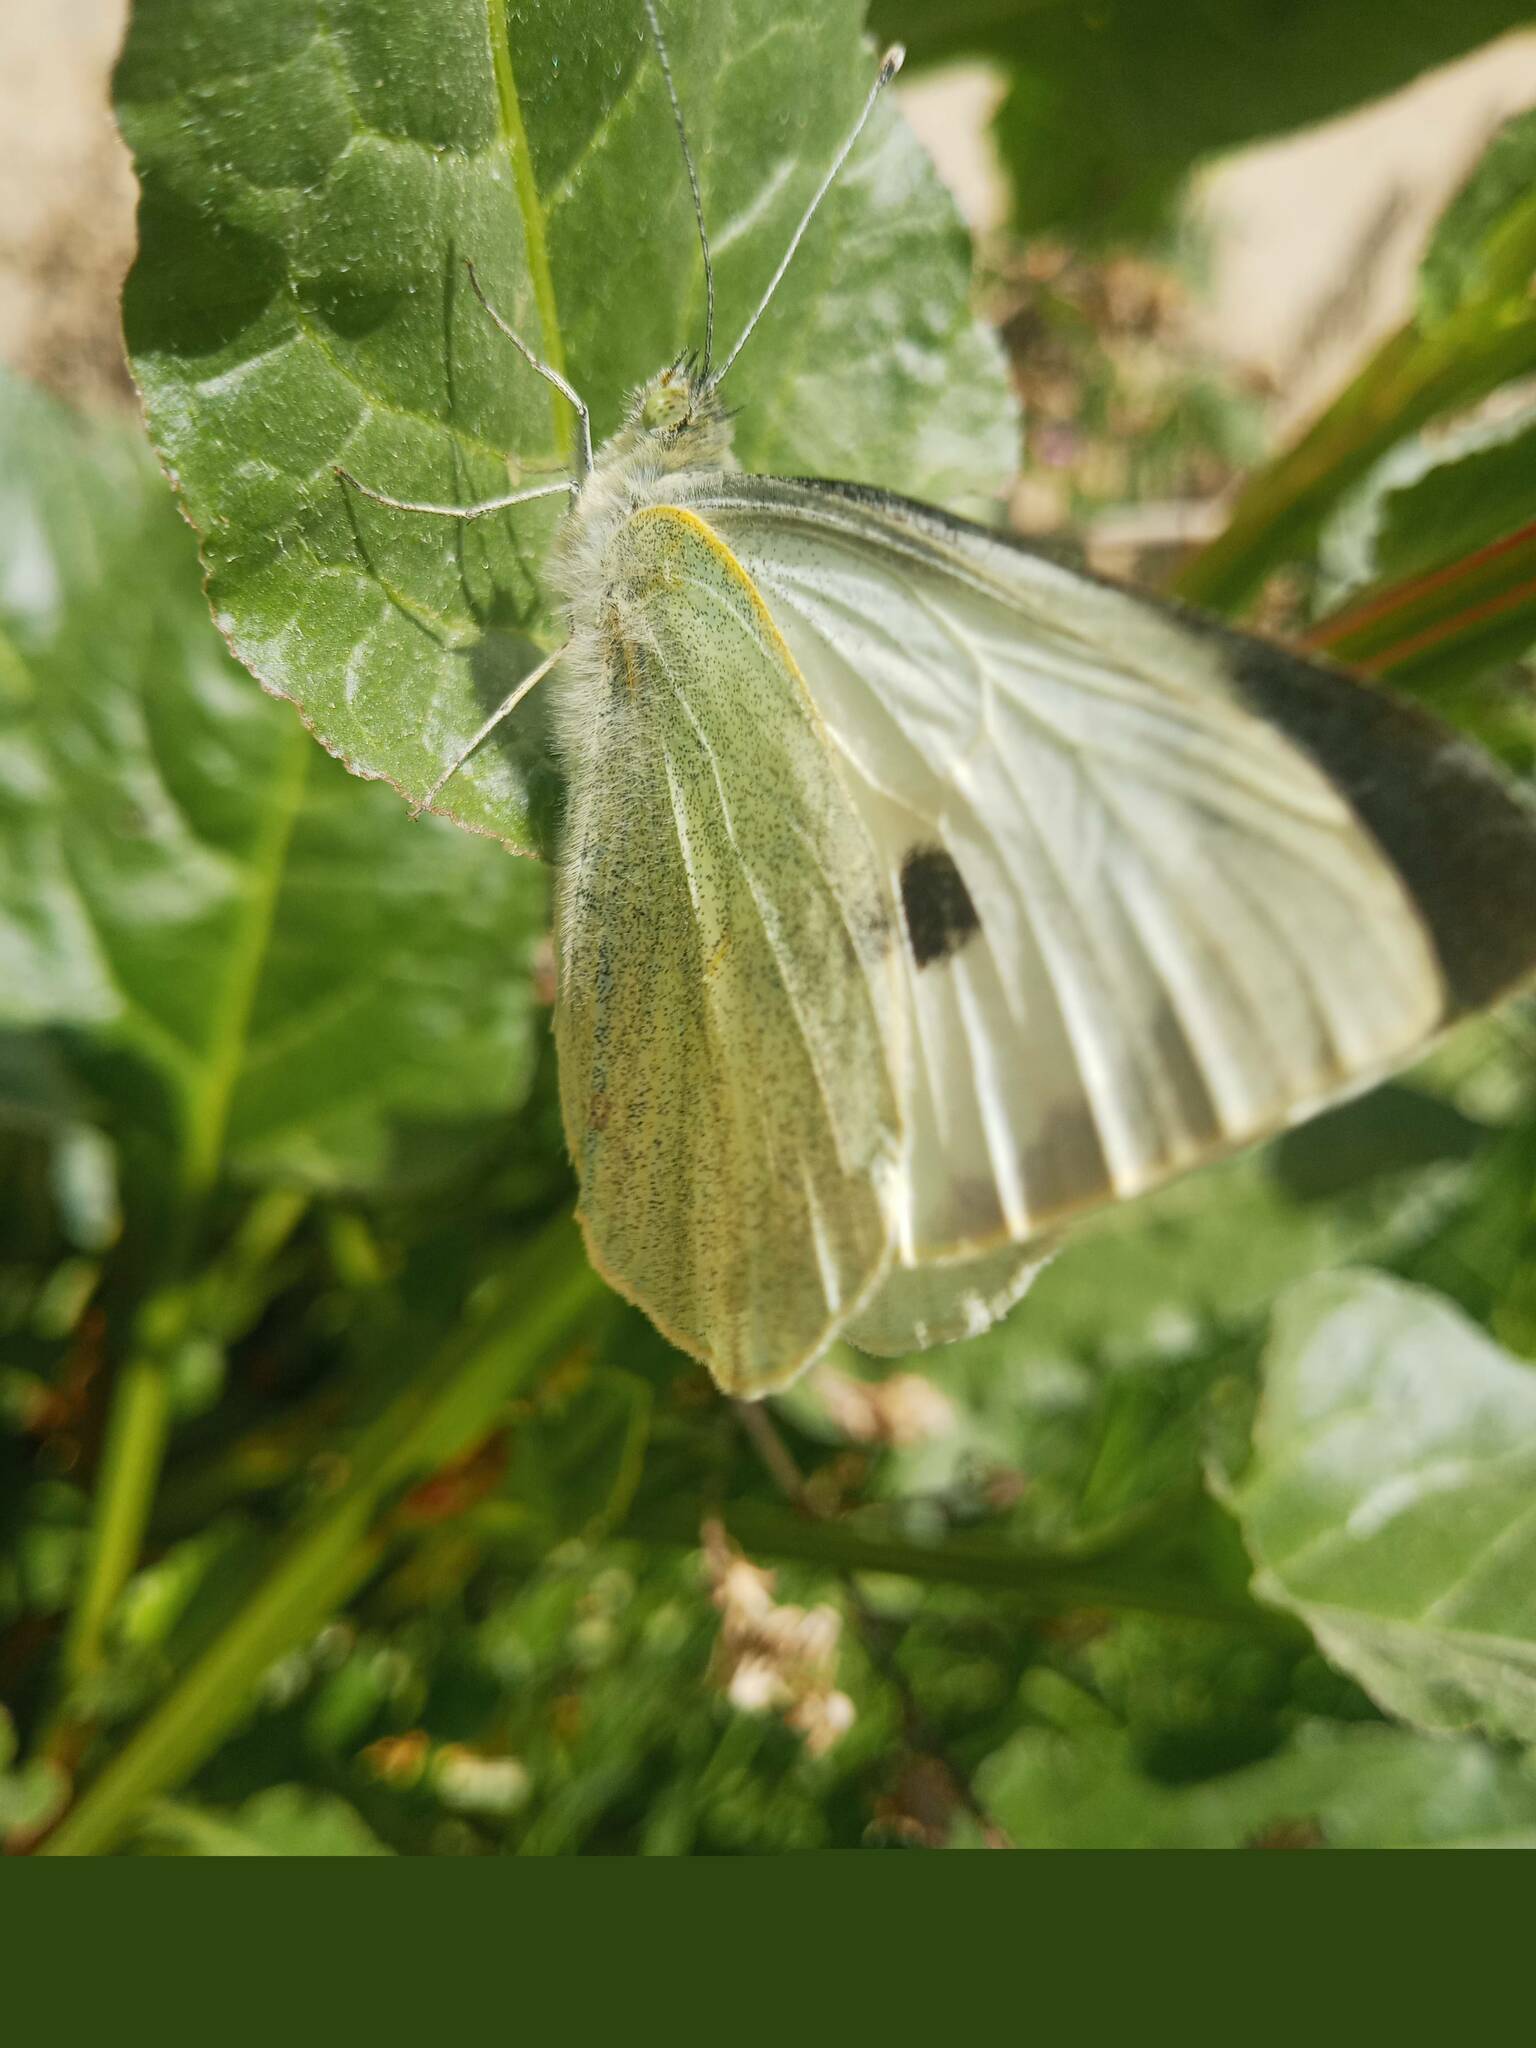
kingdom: Animalia
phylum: Arthropoda
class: Insecta
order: Lepidoptera
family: Pieridae
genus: Pieris
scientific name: Pieris brassicae
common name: Large white
